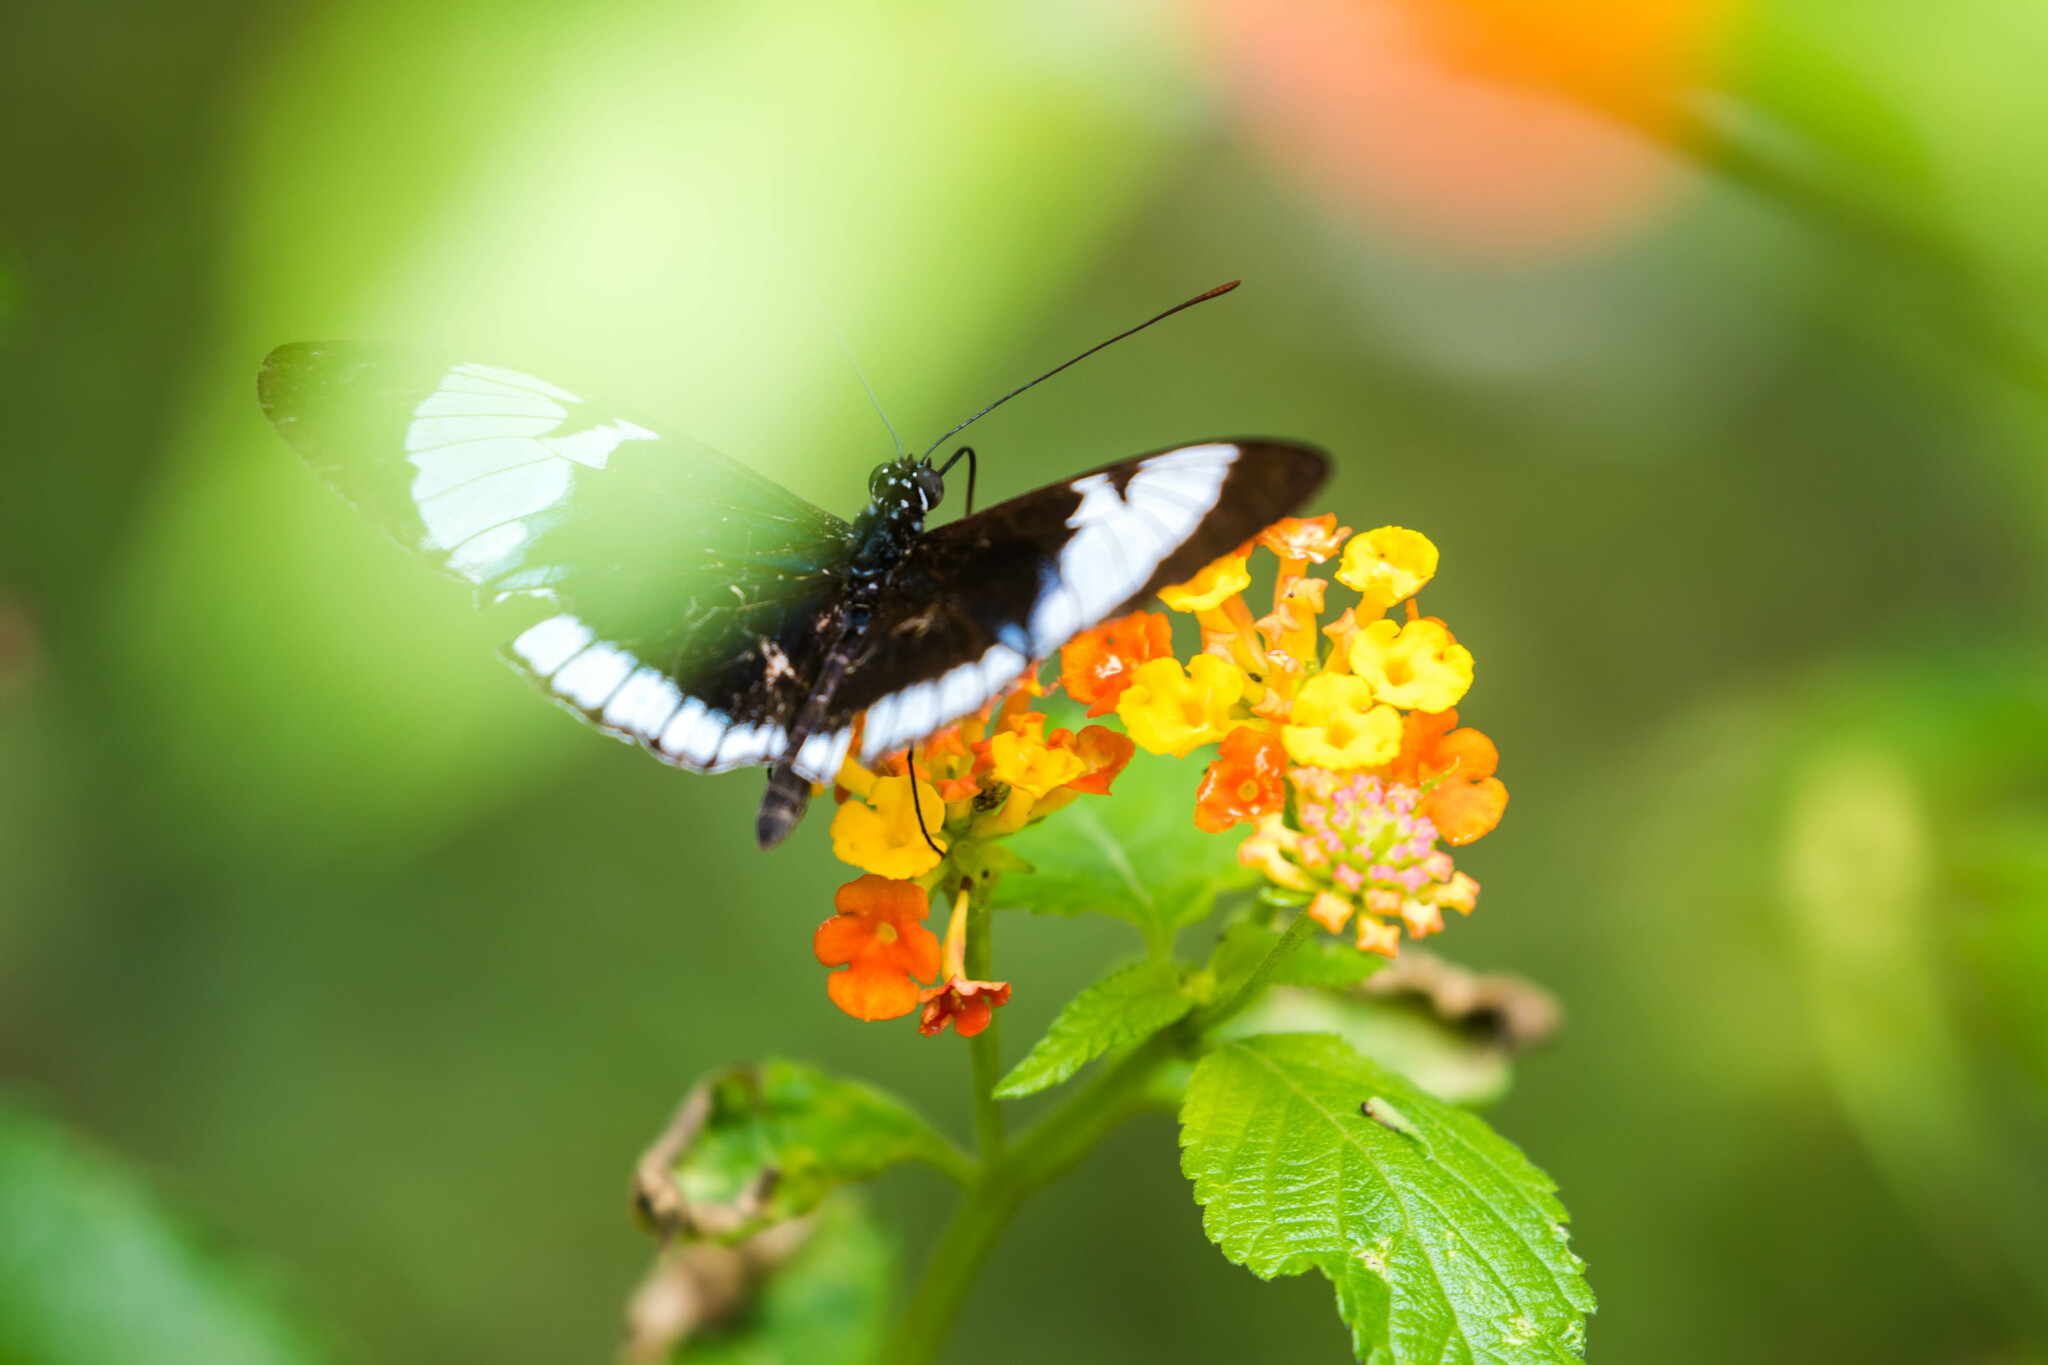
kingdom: Animalia
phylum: Arthropoda
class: Insecta
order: Lepidoptera
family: Nymphalidae
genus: Heliconius
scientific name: Heliconius cydno
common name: Cydno longwing
